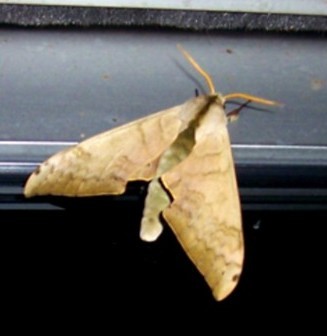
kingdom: Animalia
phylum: Arthropoda
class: Insecta
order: Lepidoptera
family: Sphingidae
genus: Pseudoclanis
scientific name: Pseudoclanis postica
